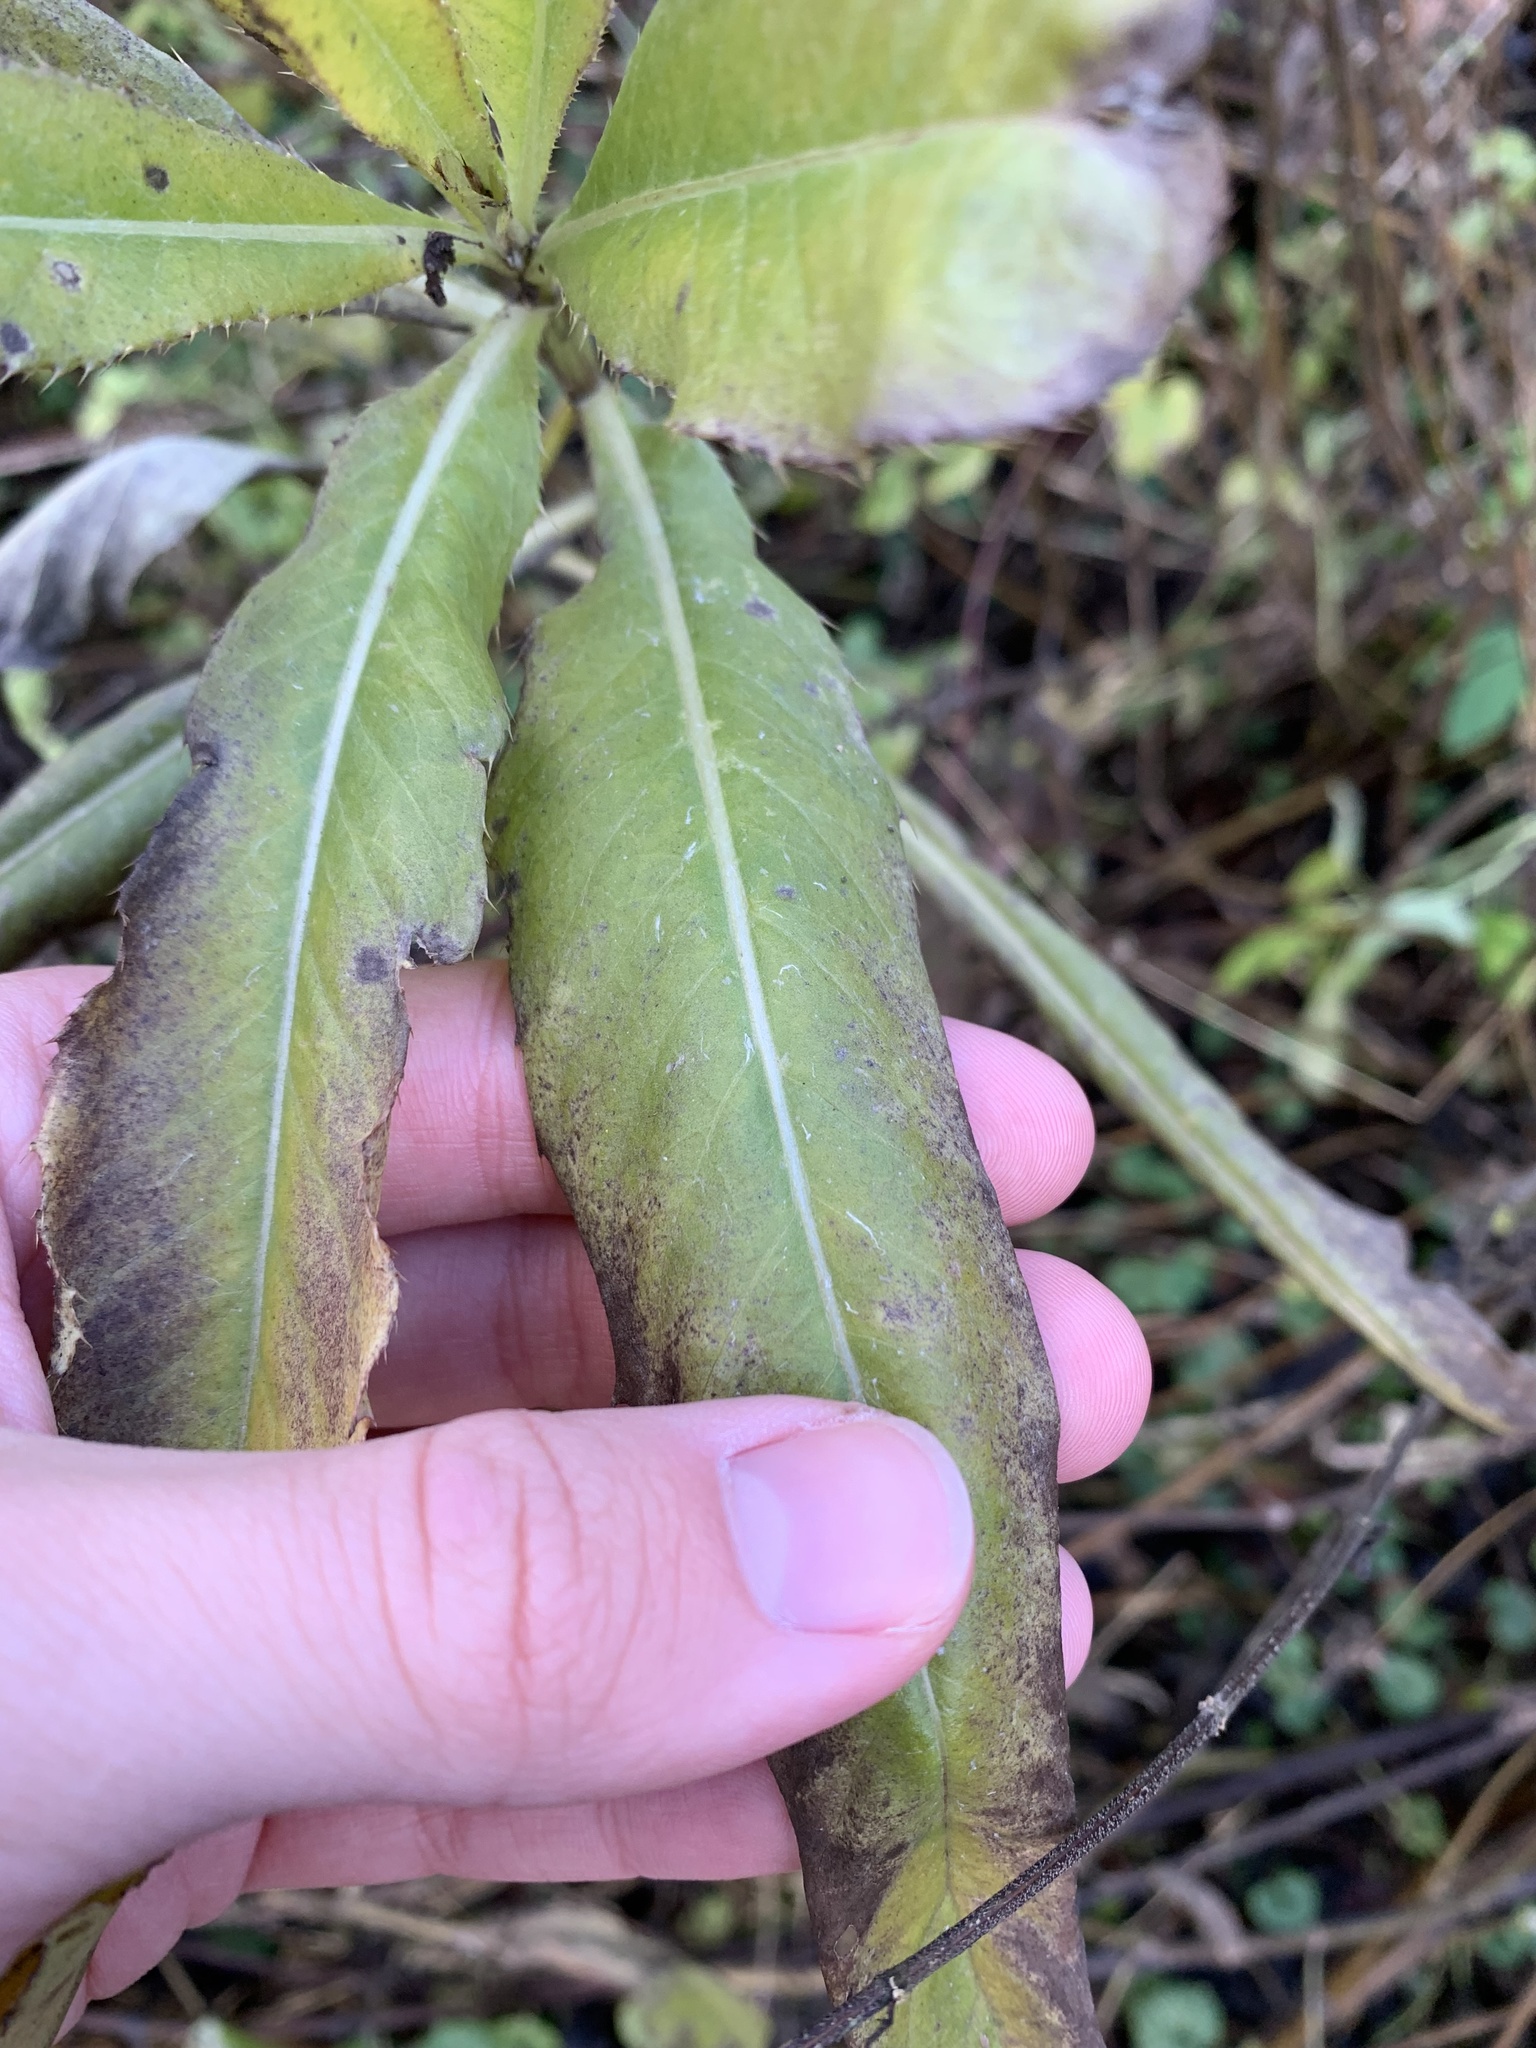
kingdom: Plantae
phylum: Tracheophyta
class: Magnoliopsida
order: Asterales
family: Asteraceae
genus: Cirsium
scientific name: Cirsium arvense
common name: Creeping thistle
